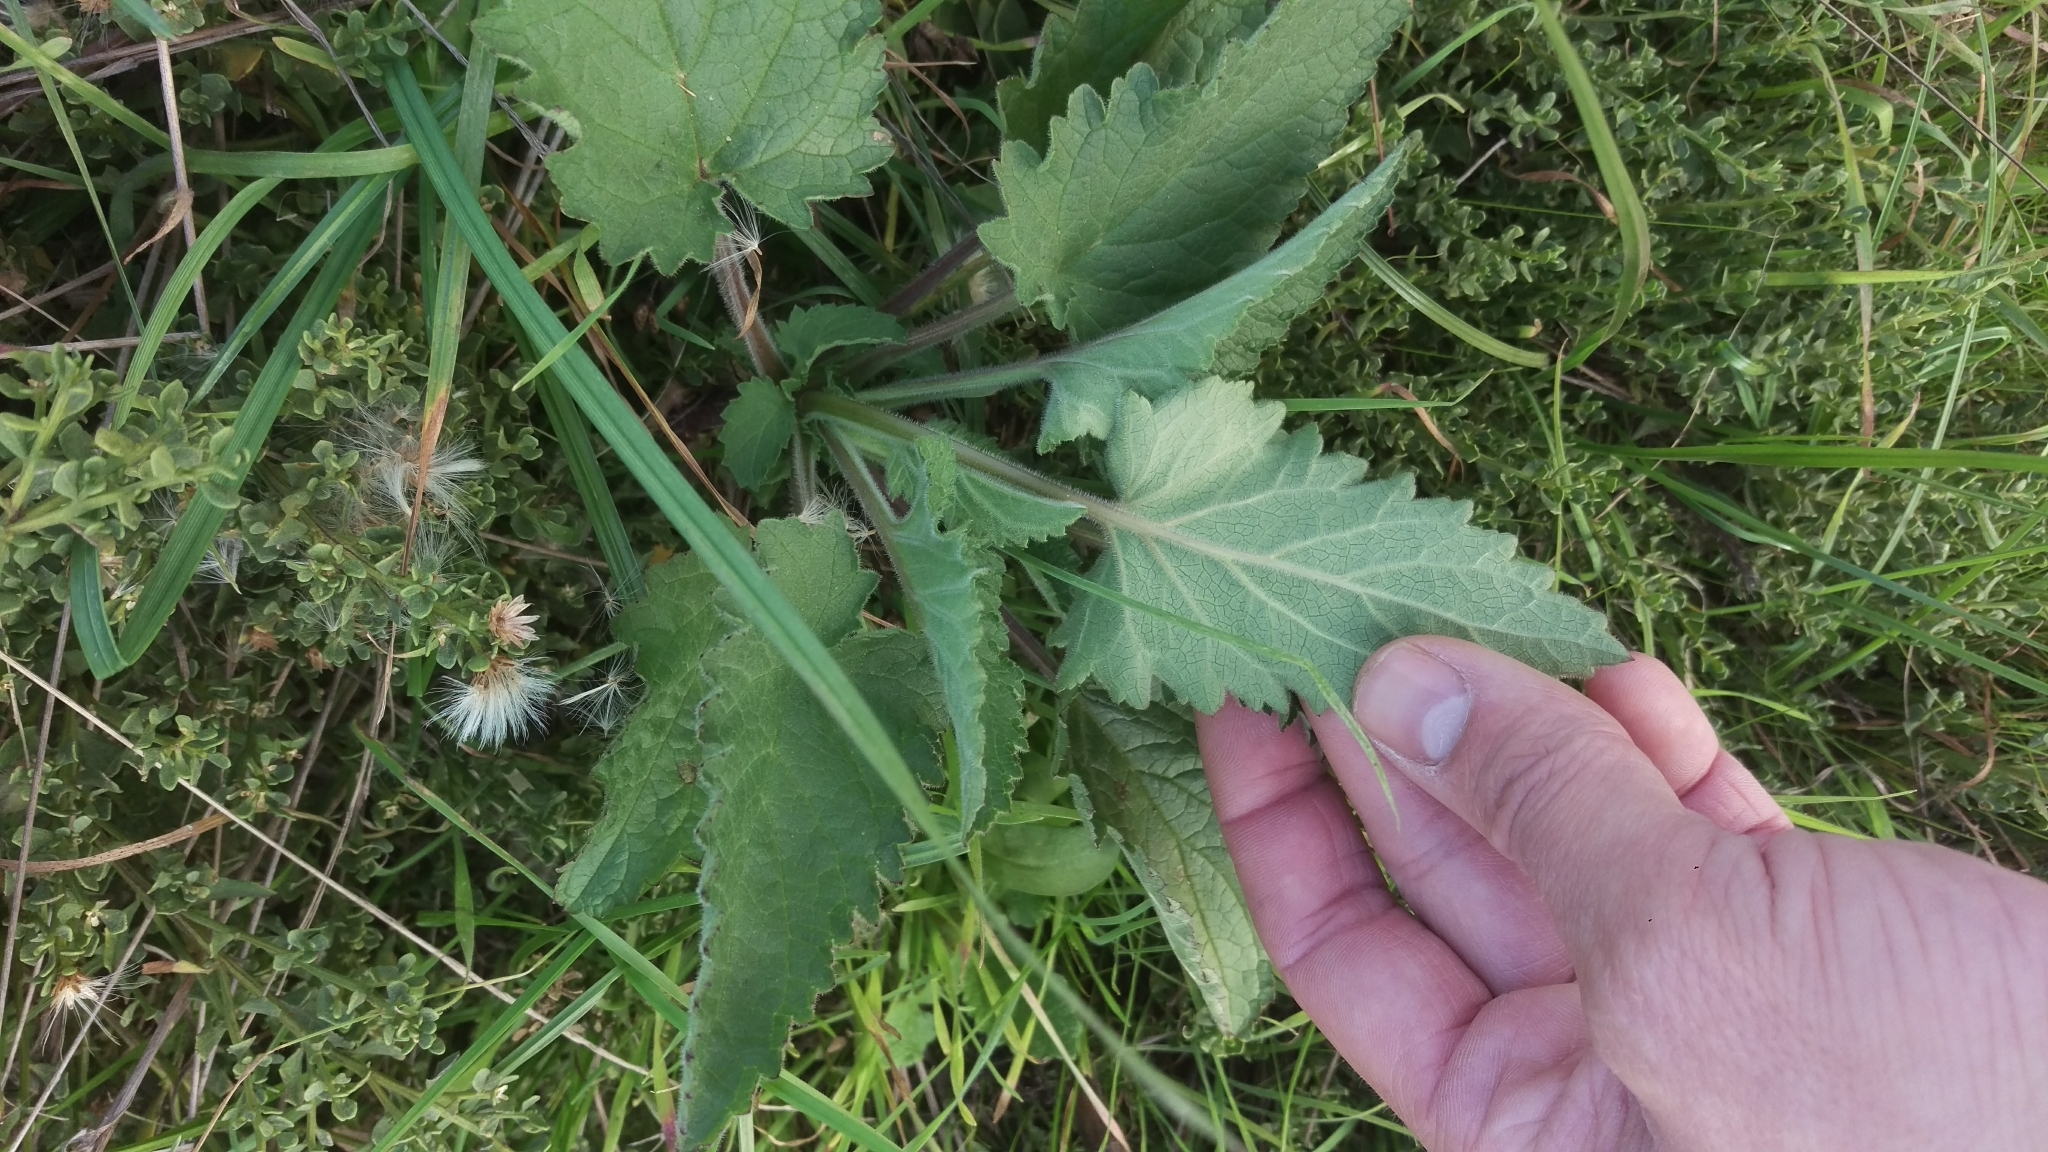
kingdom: Plantae
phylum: Tracheophyta
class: Magnoliopsida
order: Lamiales
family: Scrophulariaceae
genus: Scrophularia
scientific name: Scrophularia californica
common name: California figwort
